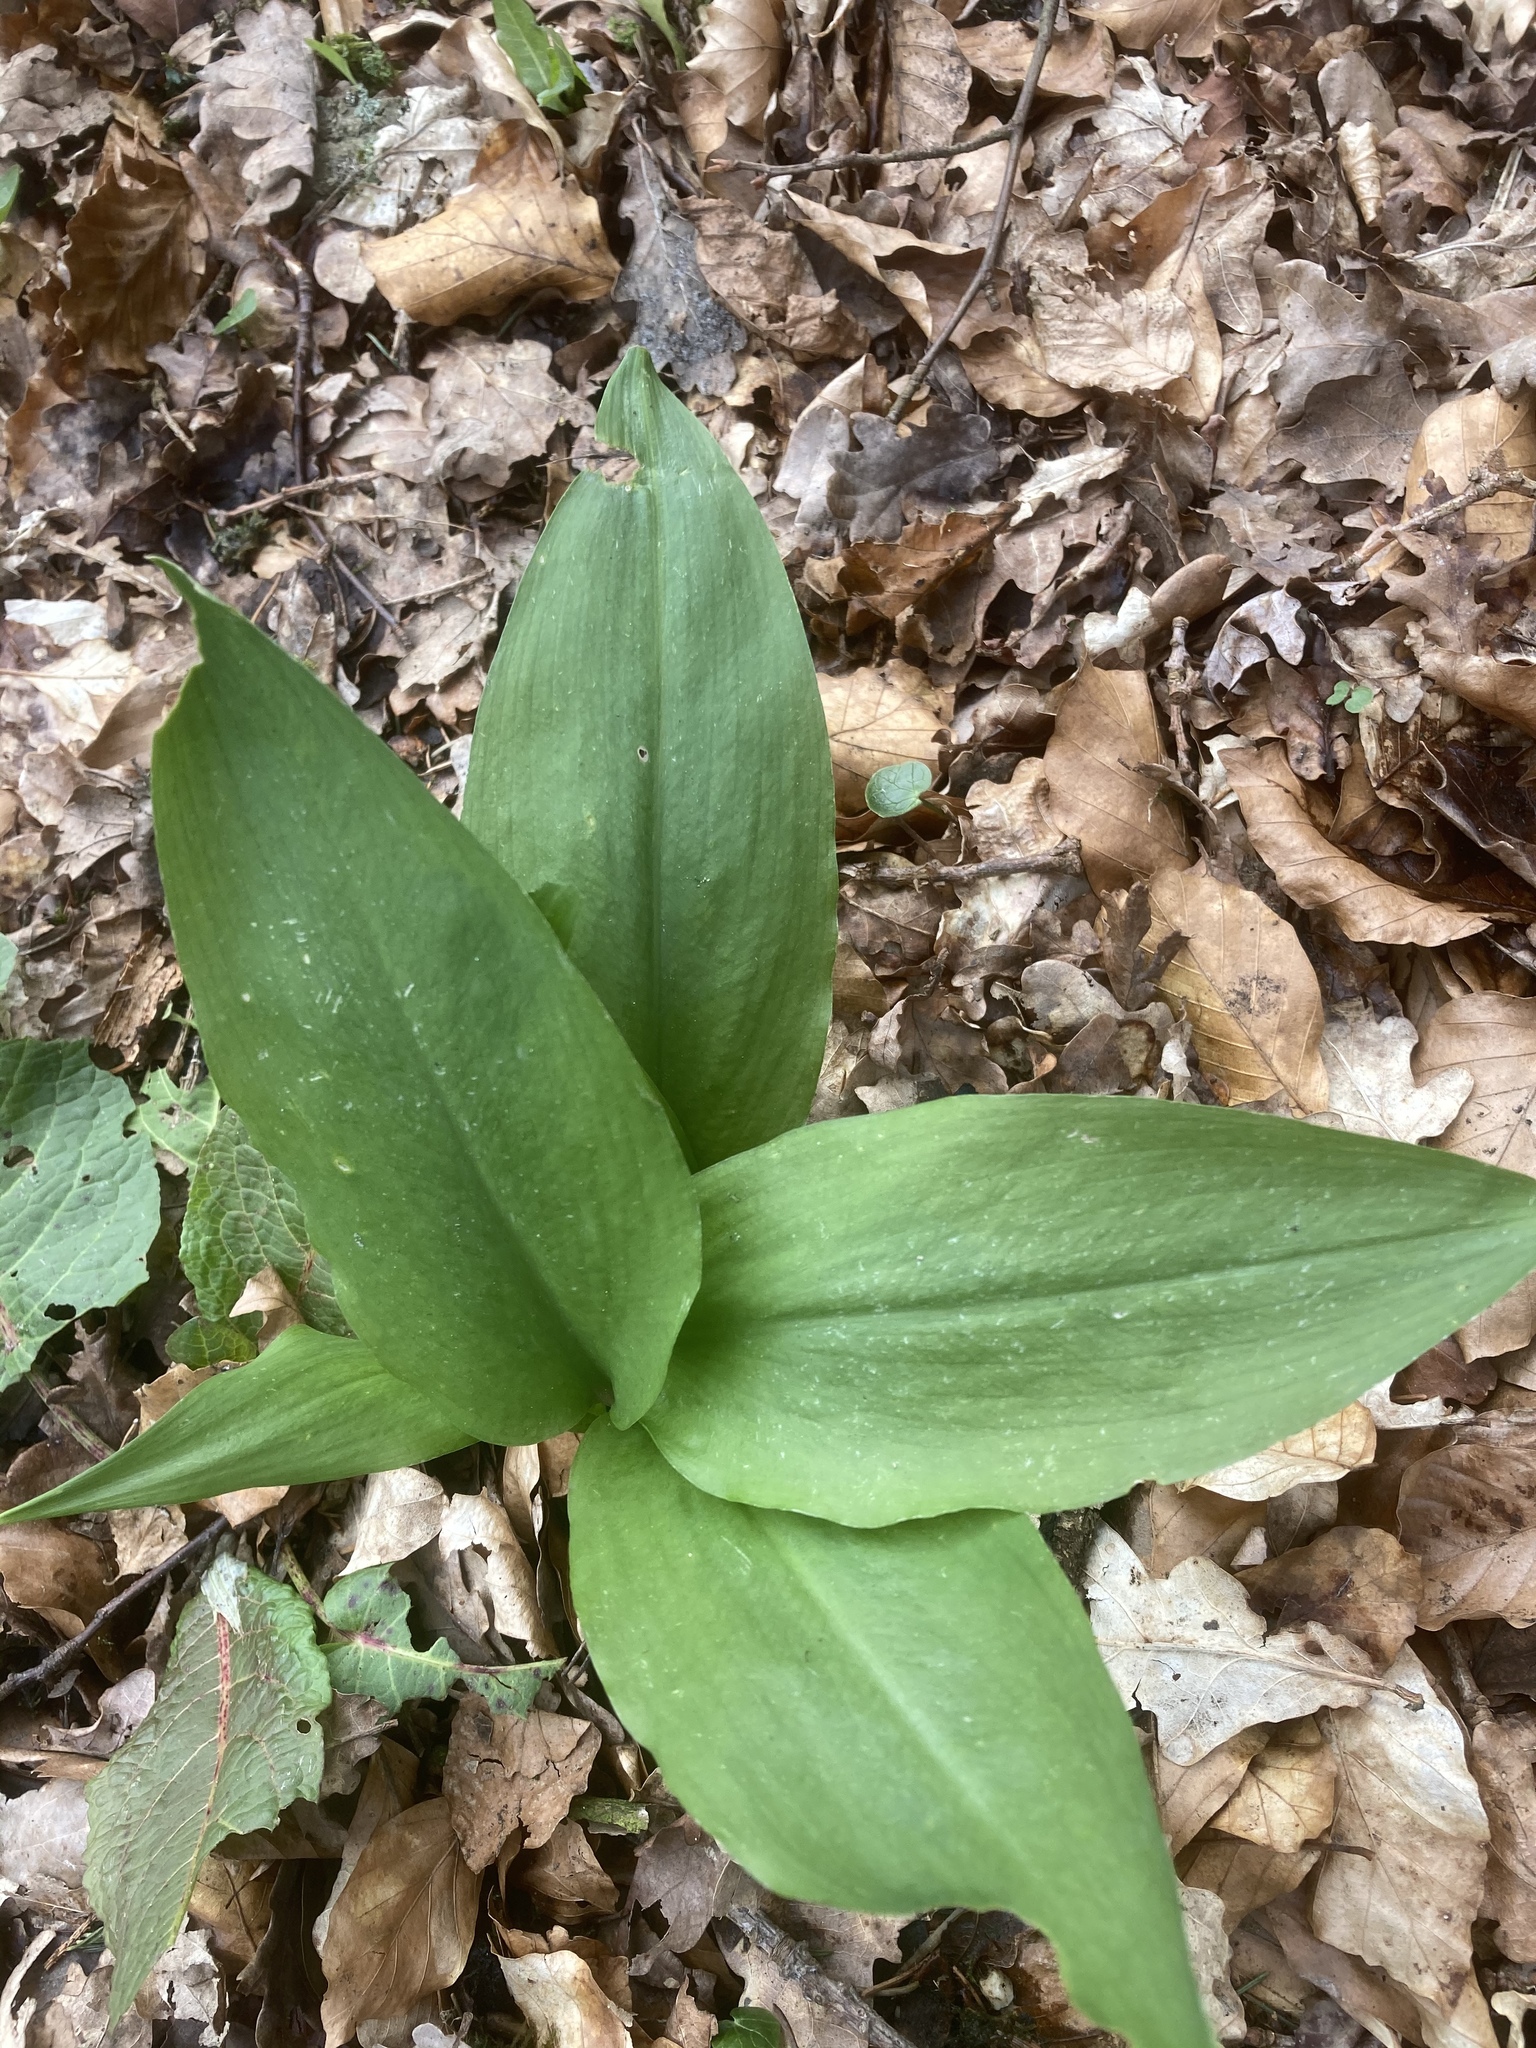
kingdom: Plantae
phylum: Tracheophyta
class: Liliopsida
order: Asparagales
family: Amaryllidaceae
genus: Allium
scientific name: Allium ursinum
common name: Ramsons
